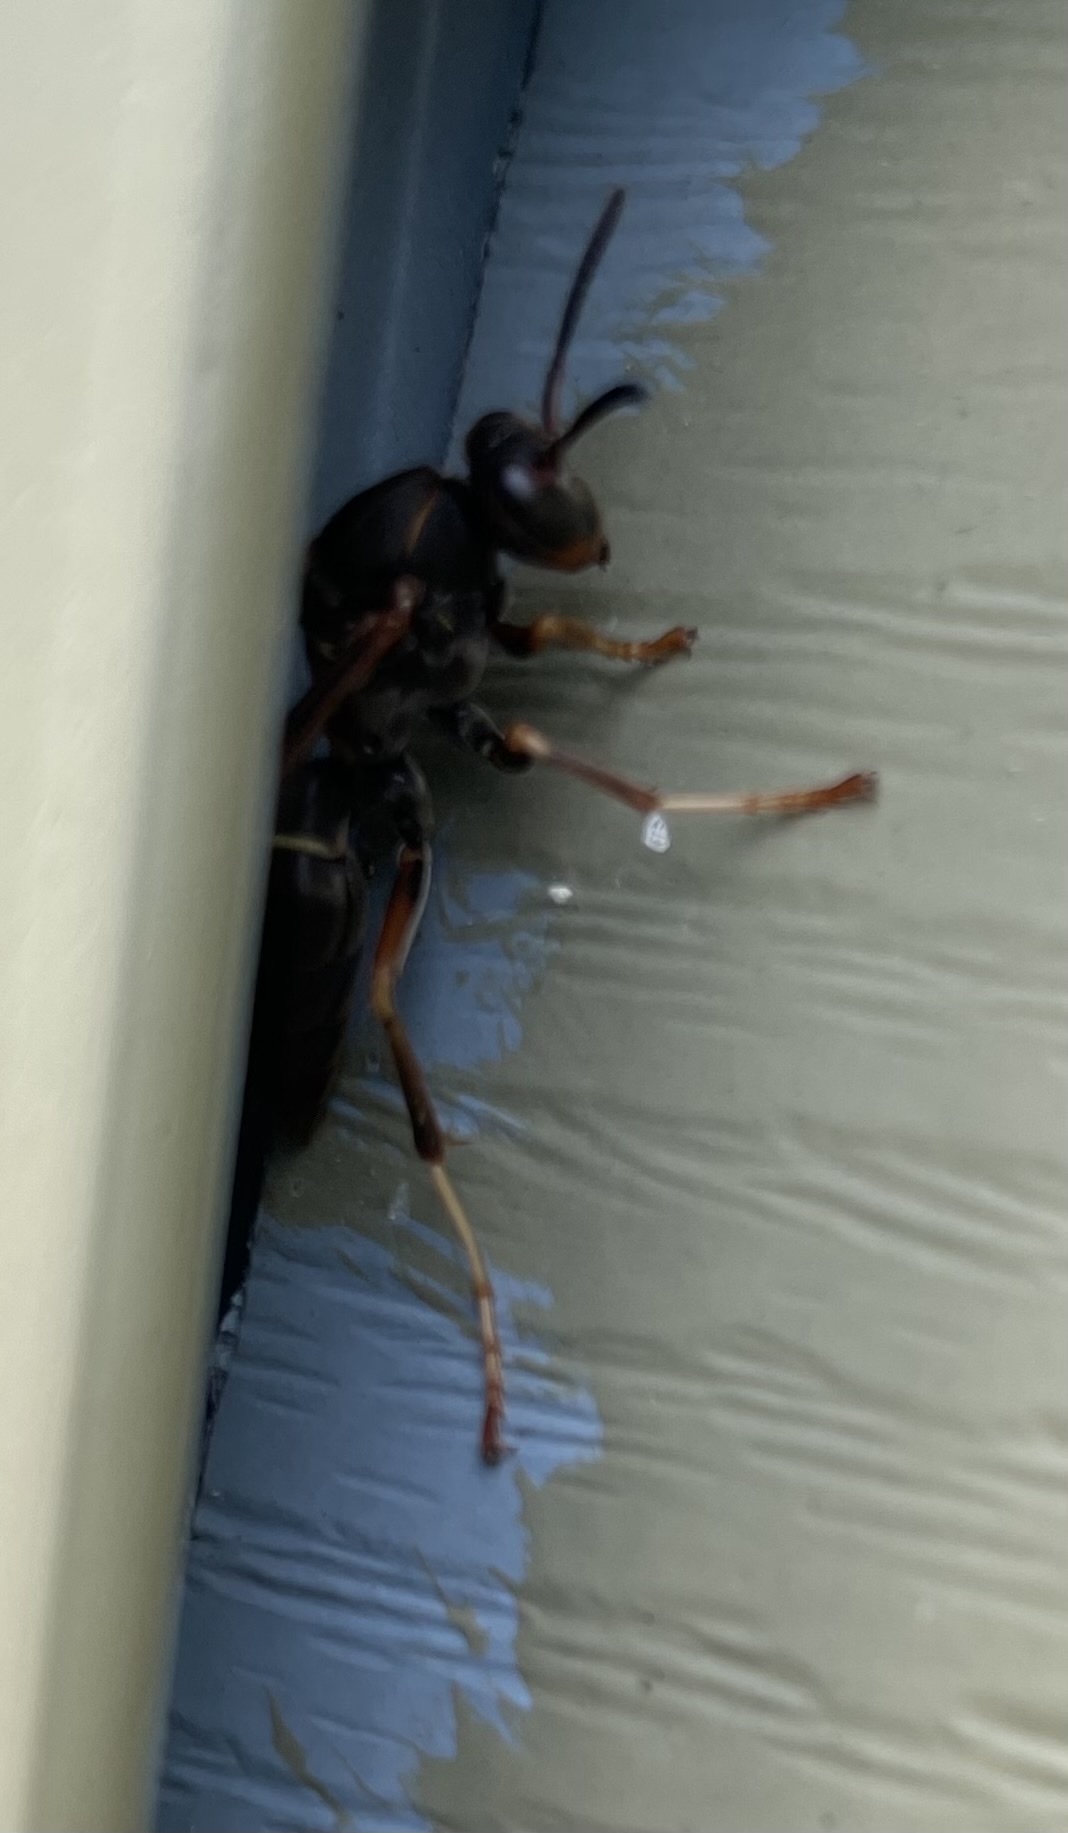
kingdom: Animalia
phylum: Arthropoda
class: Insecta
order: Hymenoptera
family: Eumenidae
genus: Polistes
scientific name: Polistes fuscatus
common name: Dark paper wasp
